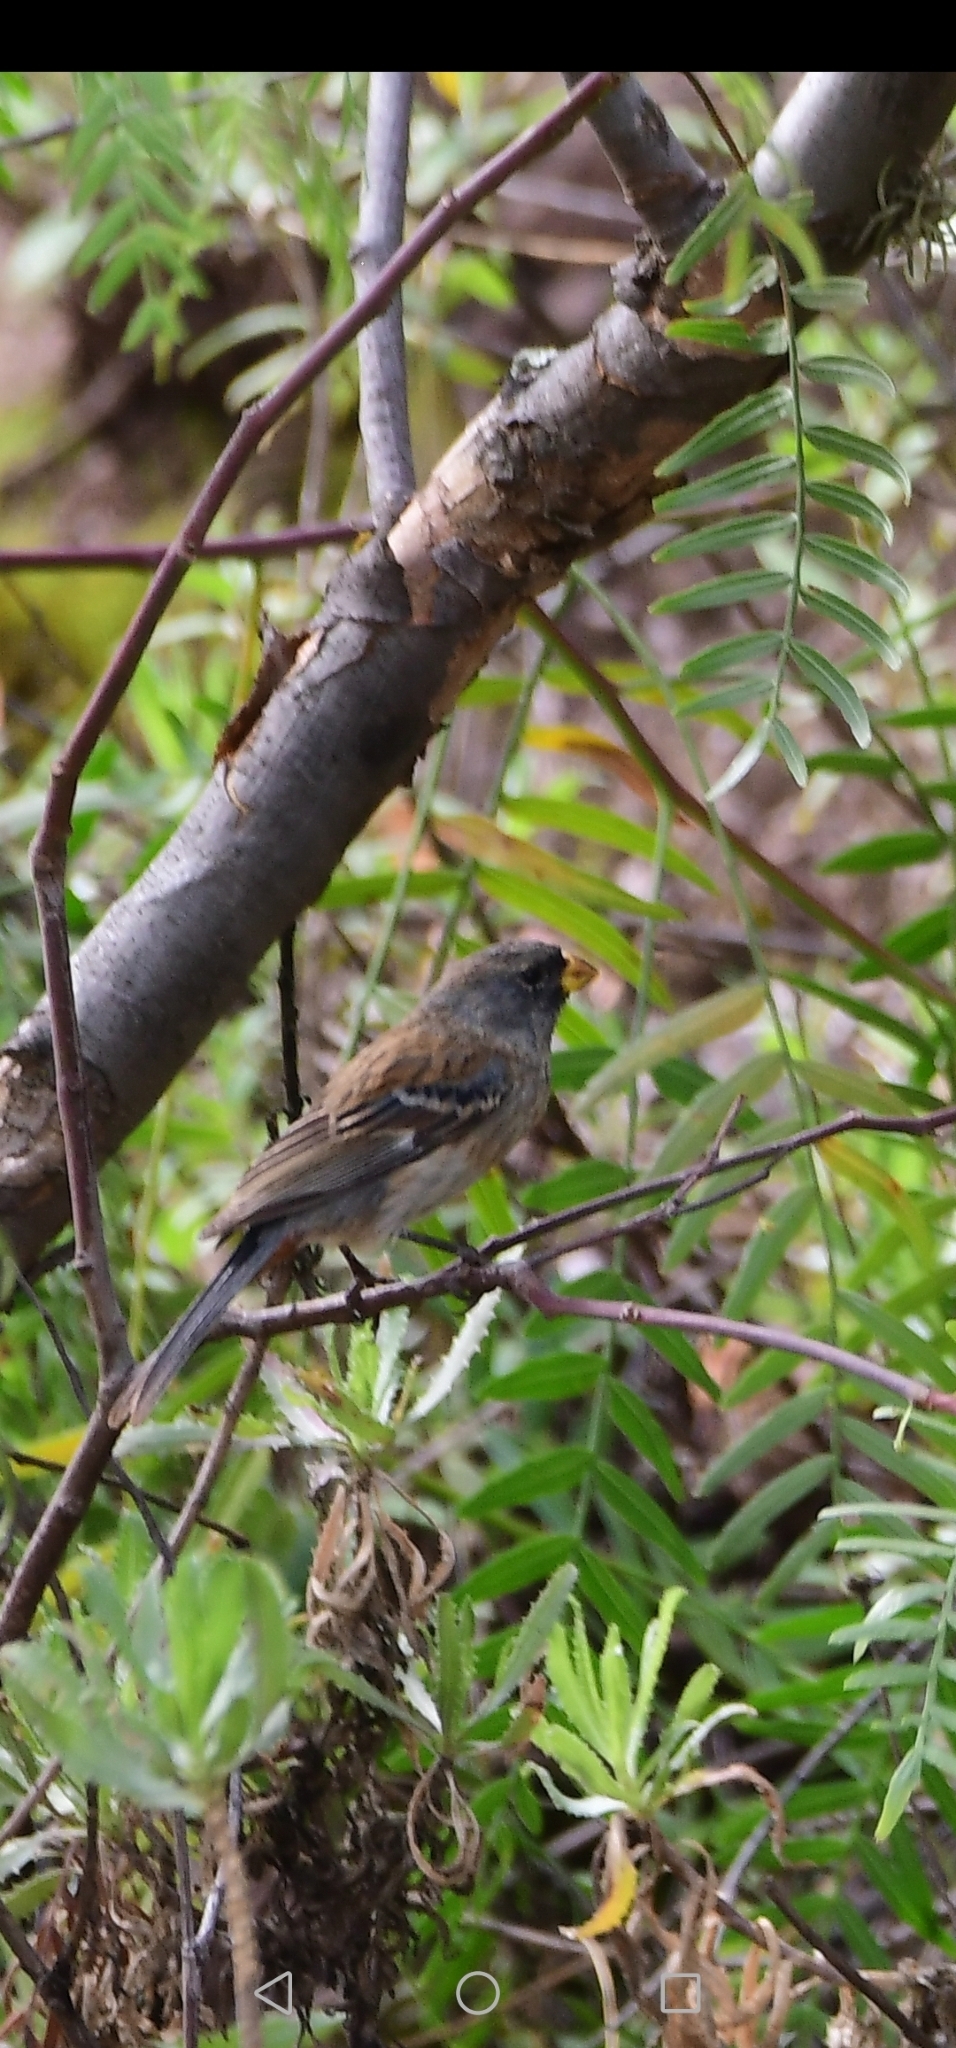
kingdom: Animalia
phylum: Chordata
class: Aves
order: Passeriformes
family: Thraupidae
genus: Catamenia
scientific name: Catamenia analis
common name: Band-tailed seedeater
